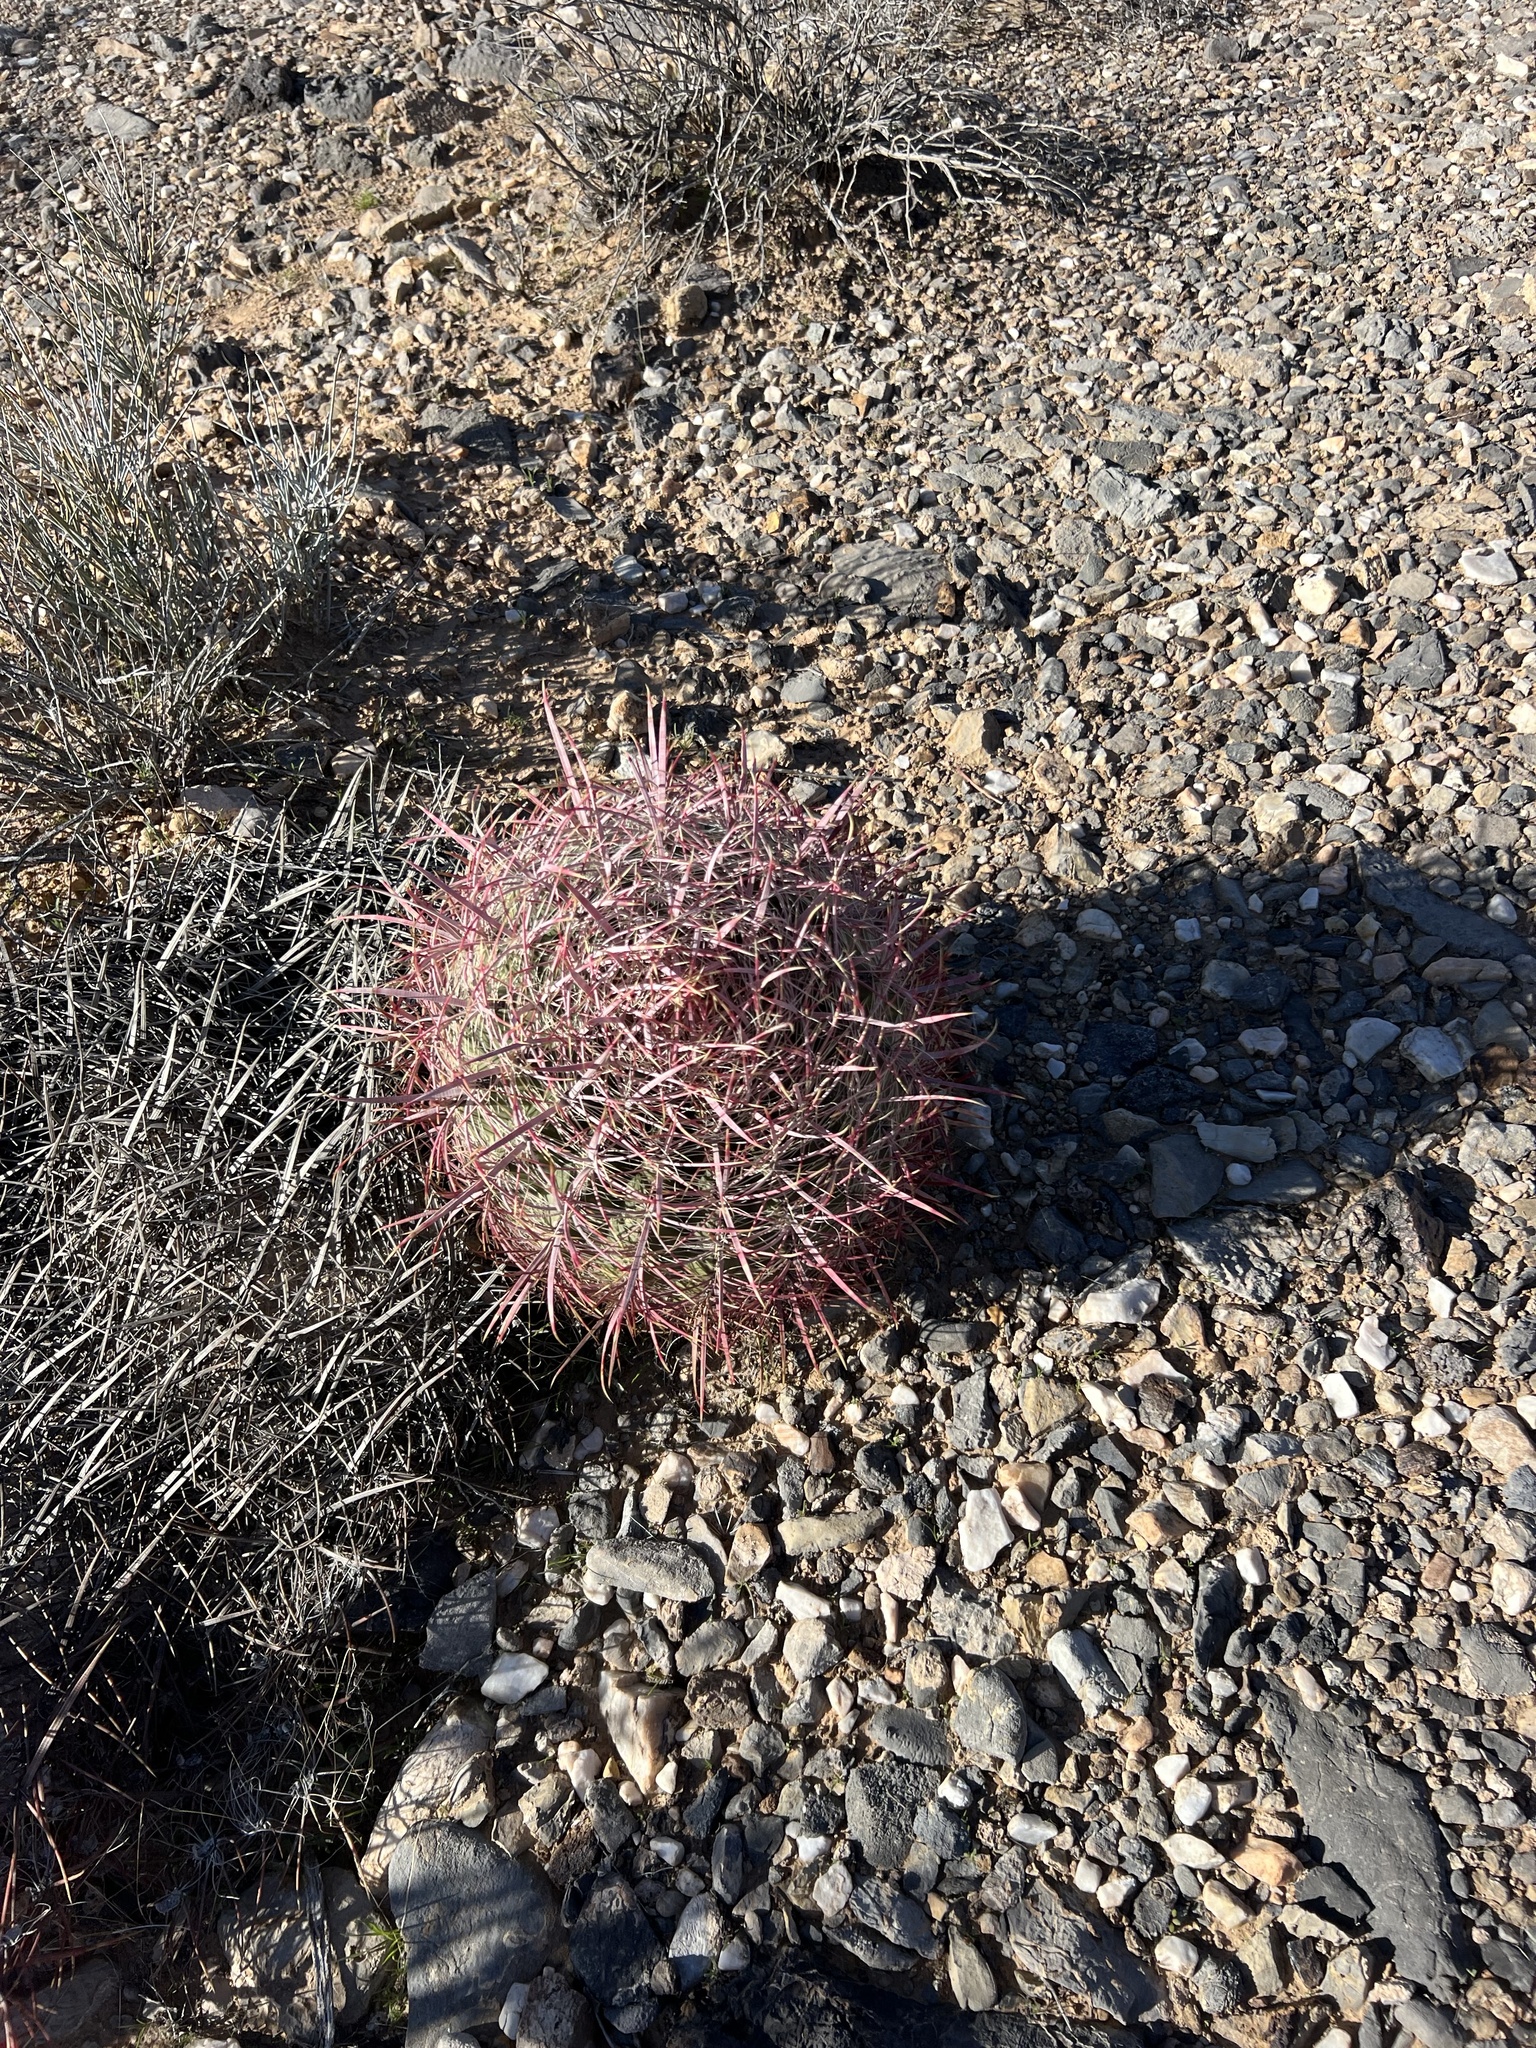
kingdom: Plantae
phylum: Tracheophyta
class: Magnoliopsida
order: Caryophyllales
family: Cactaceae
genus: Ferocactus
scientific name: Ferocactus cylindraceus
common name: California barrel cactus
